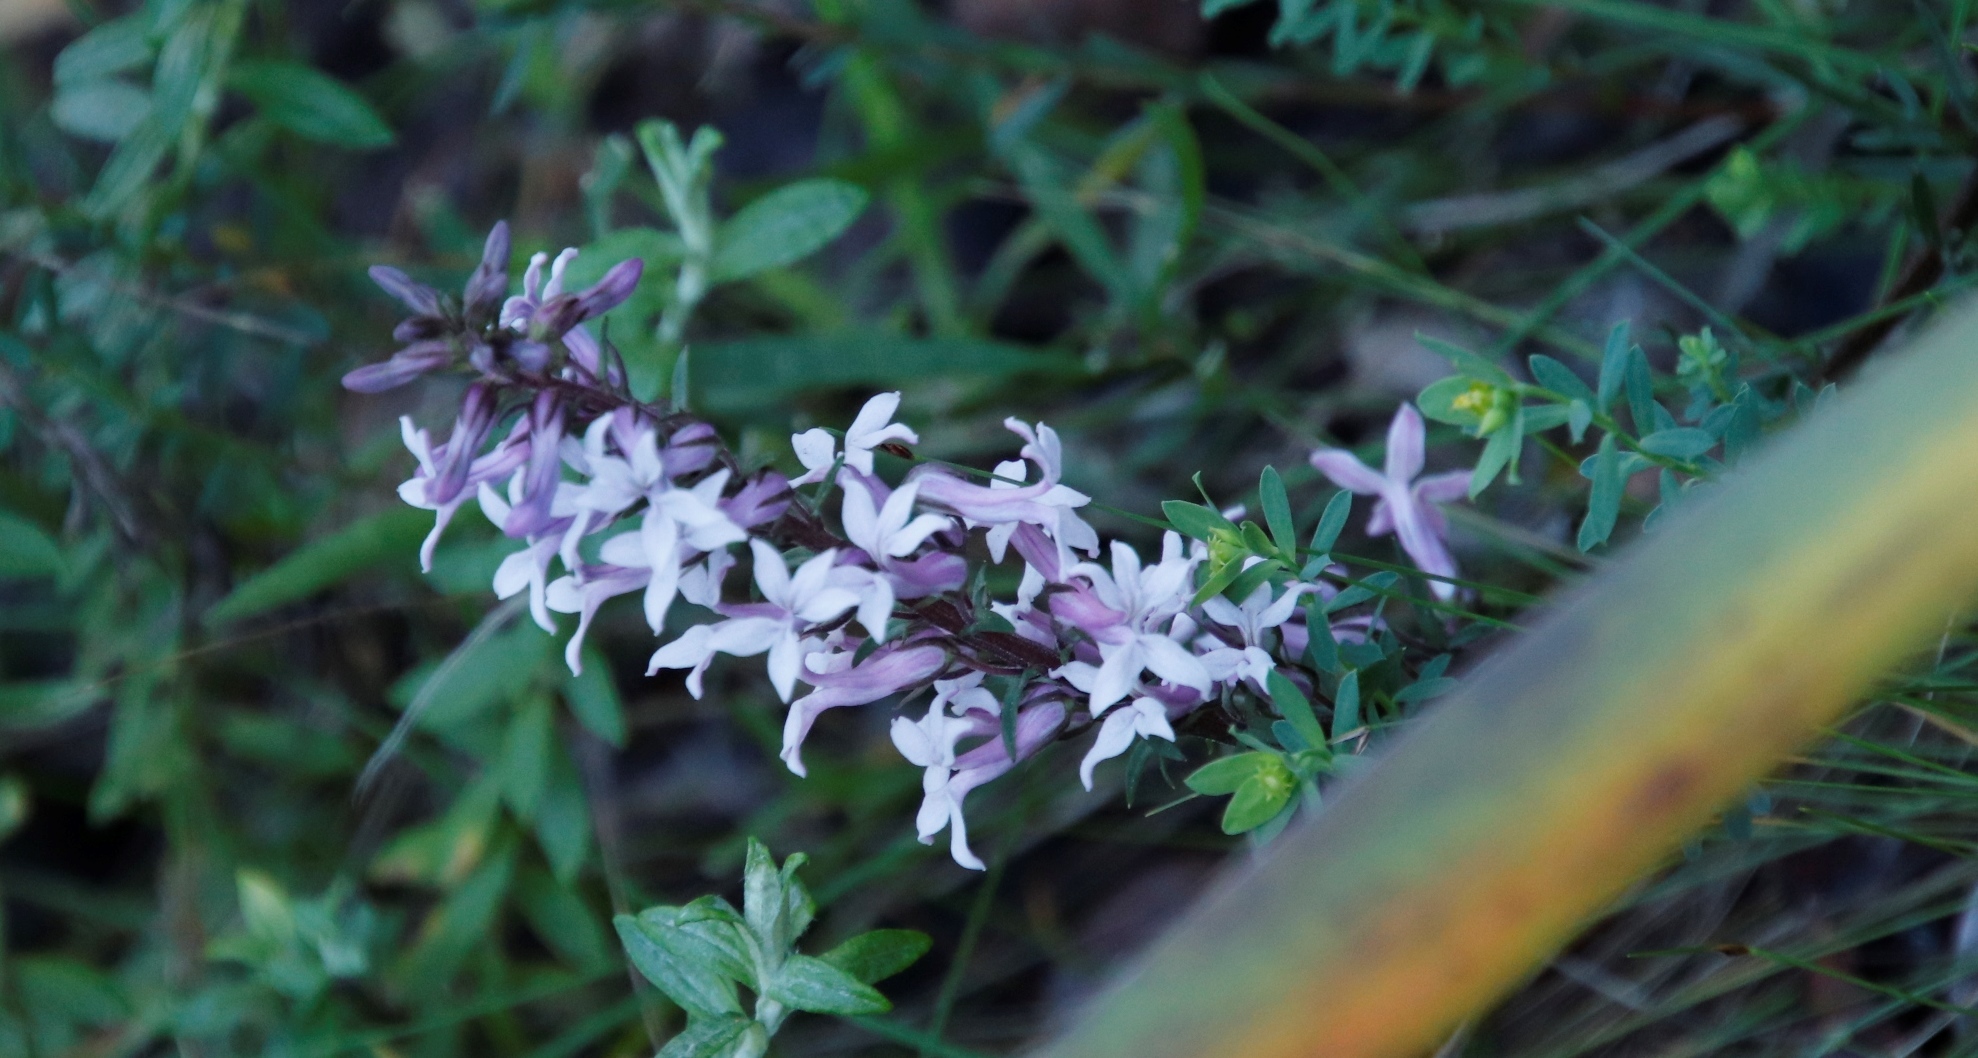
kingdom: Plantae
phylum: Tracheophyta
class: Magnoliopsida
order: Asterales
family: Campanulaceae
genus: Cyphia
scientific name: Cyphia bulbosa
